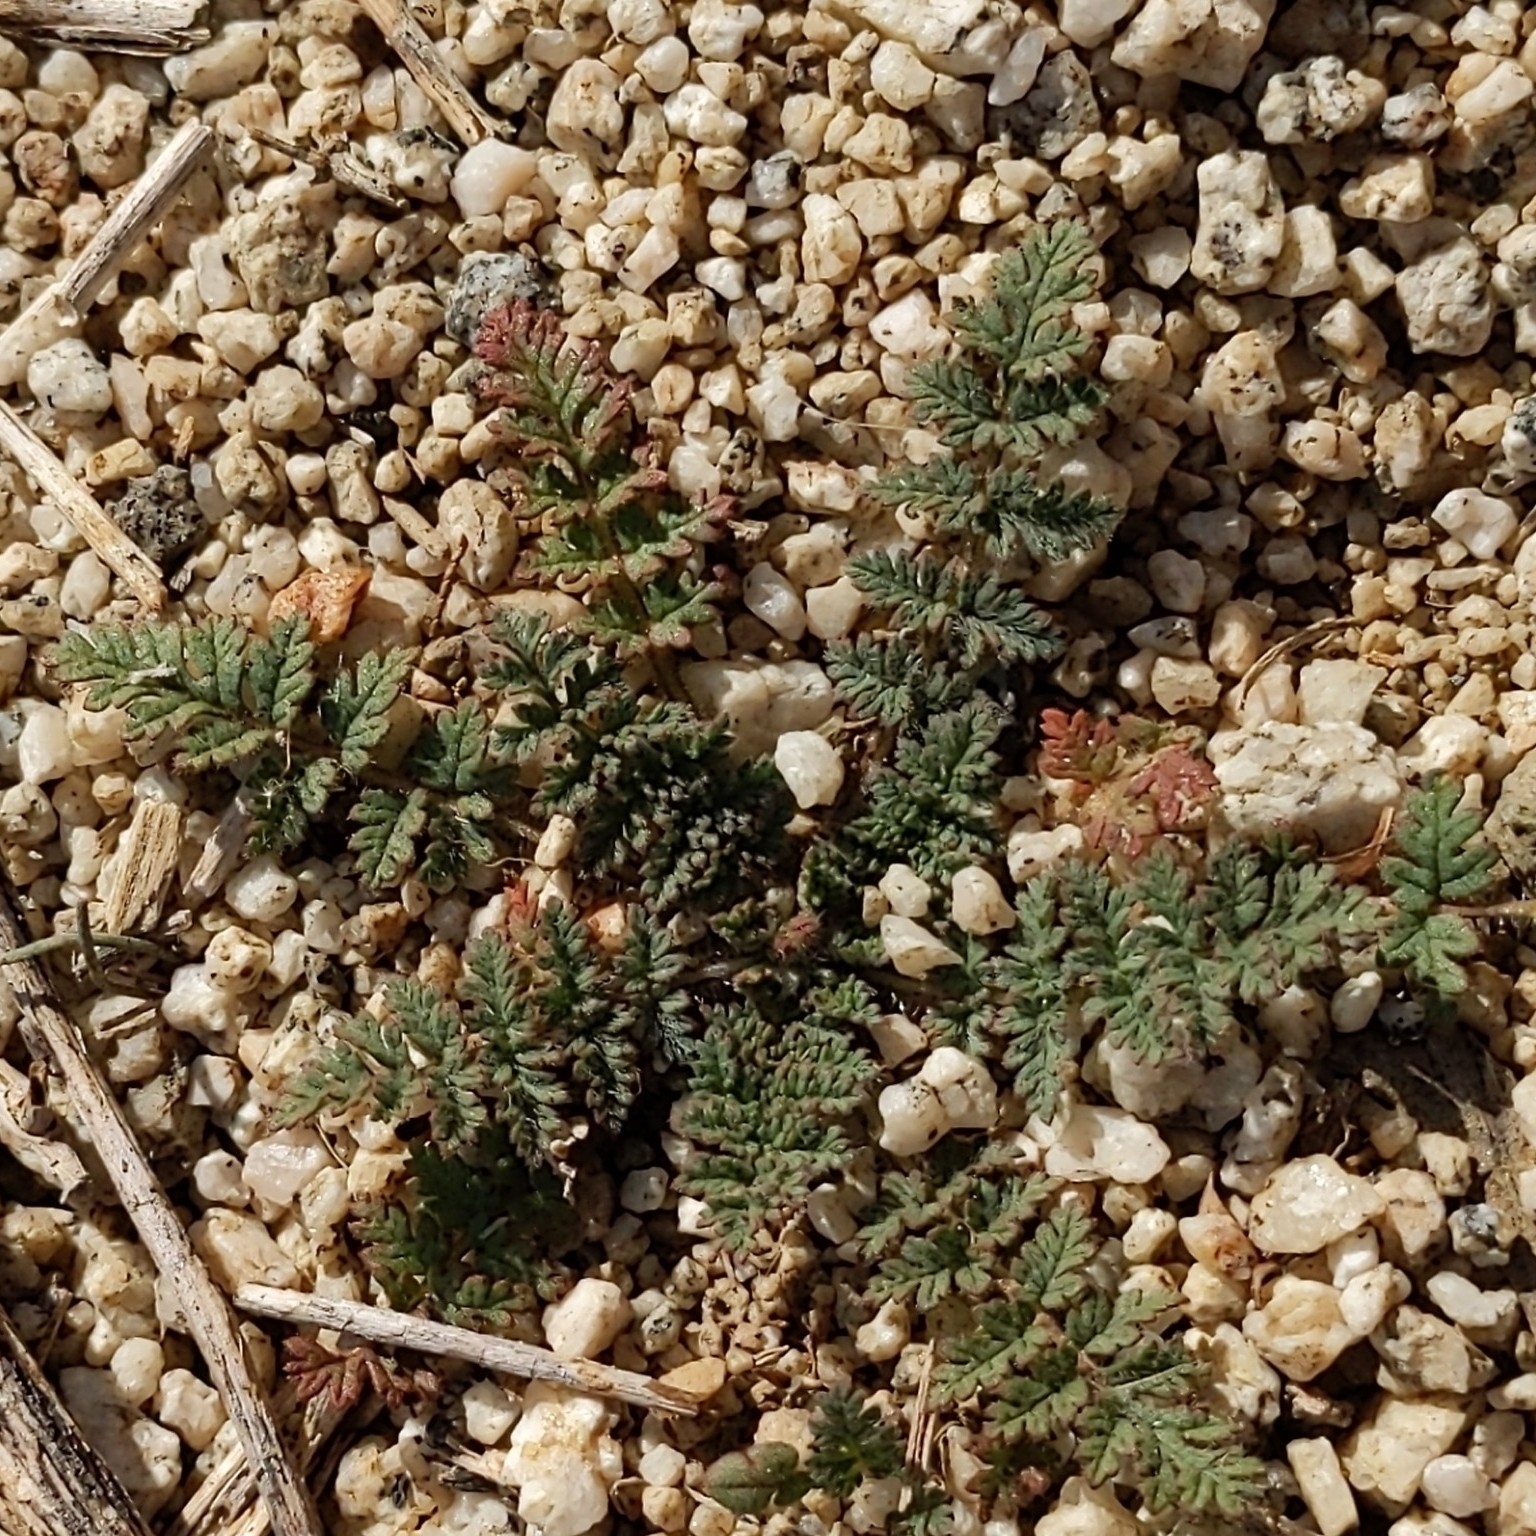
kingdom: Plantae
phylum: Tracheophyta
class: Magnoliopsida
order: Geraniales
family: Geraniaceae
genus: Erodium
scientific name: Erodium cicutarium
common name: Common stork's-bill
